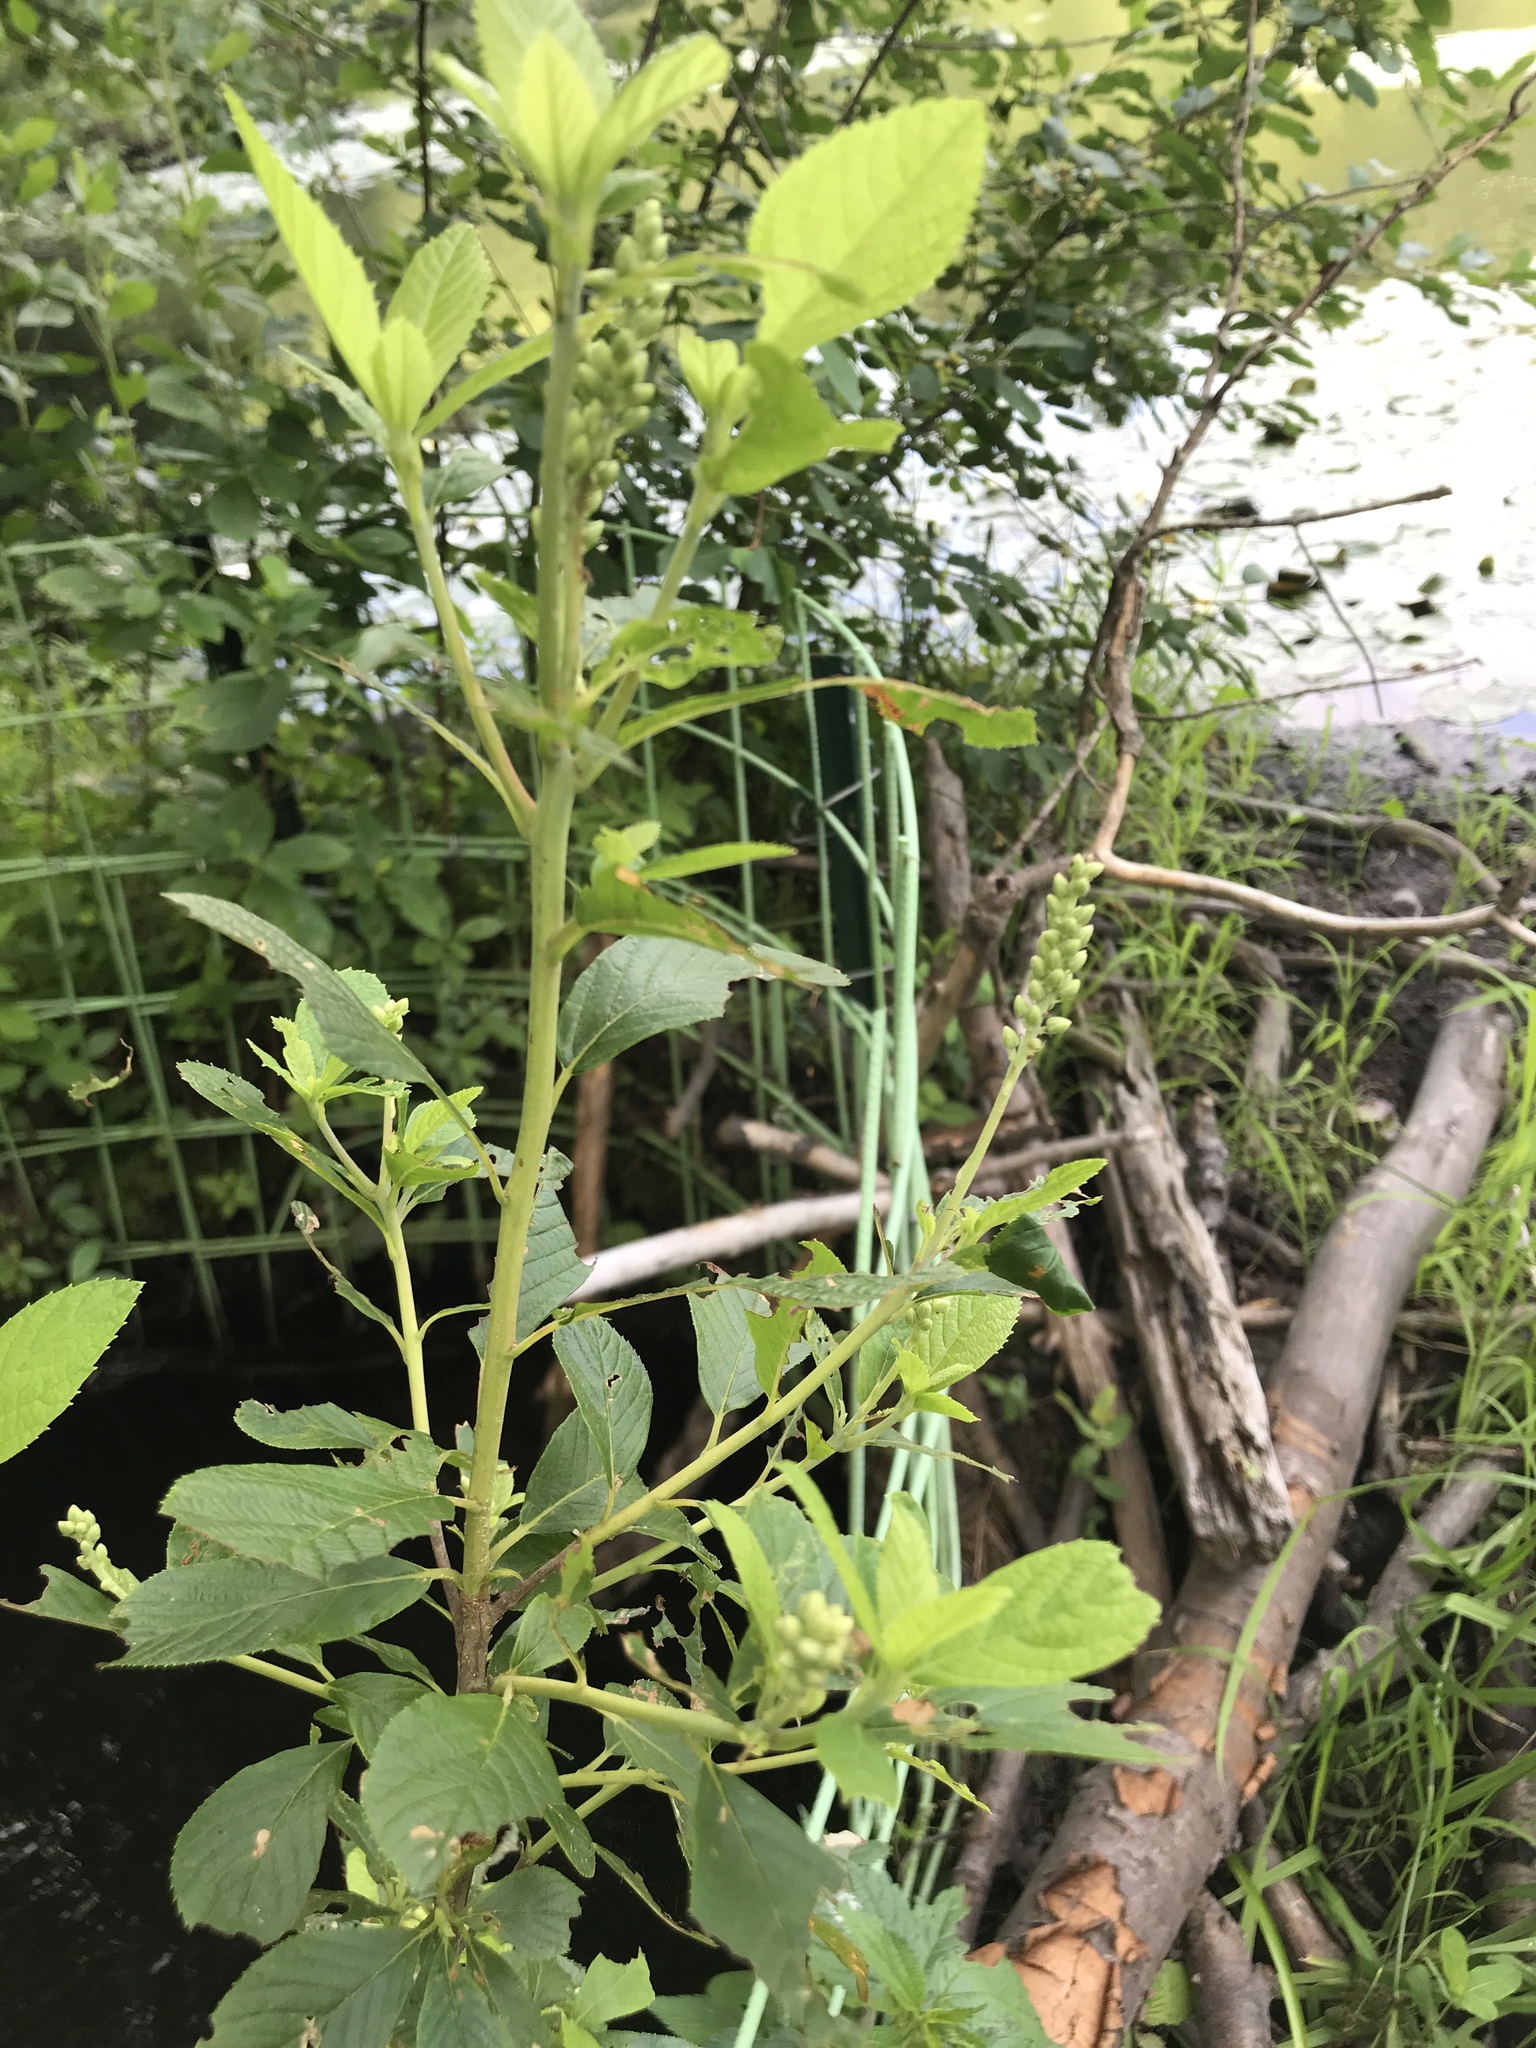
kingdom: Plantae
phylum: Tracheophyta
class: Magnoliopsida
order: Ericales
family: Clethraceae
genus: Clethra
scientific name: Clethra alnifolia
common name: Sweet pepperbush
